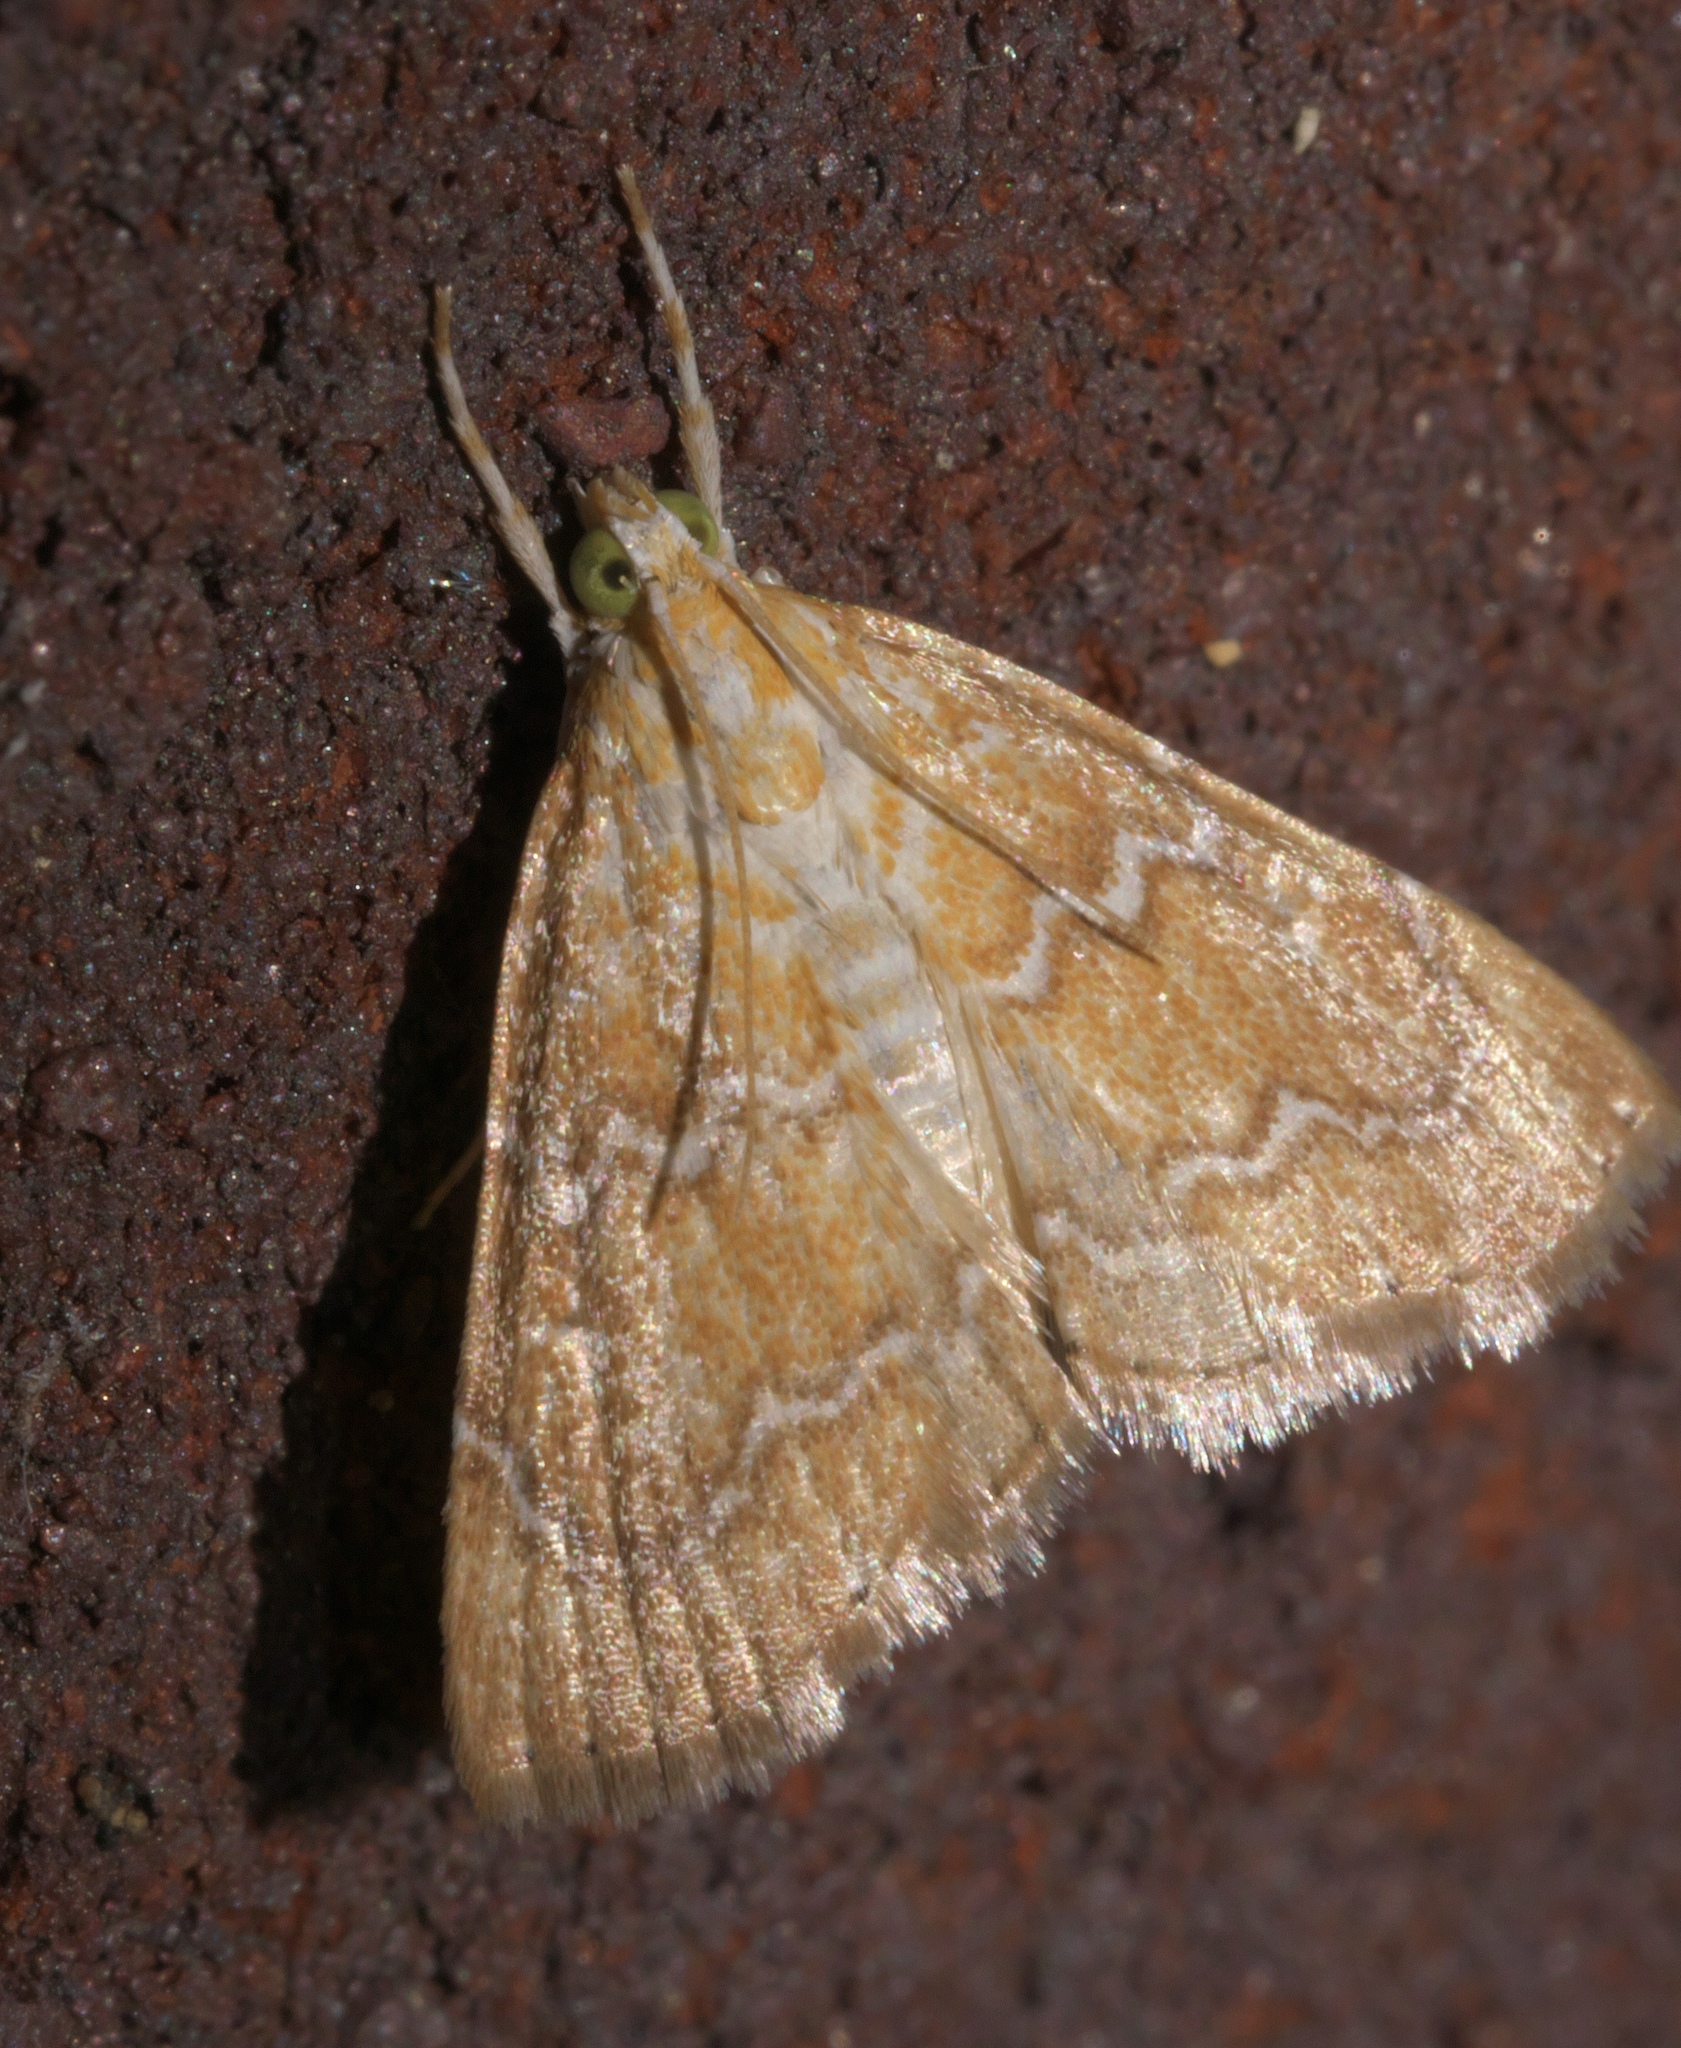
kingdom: Animalia
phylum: Arthropoda
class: Insecta
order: Lepidoptera
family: Crambidae
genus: Glaphyria
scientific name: Glaphyria sesquistrialis
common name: White-roped glaphyria
